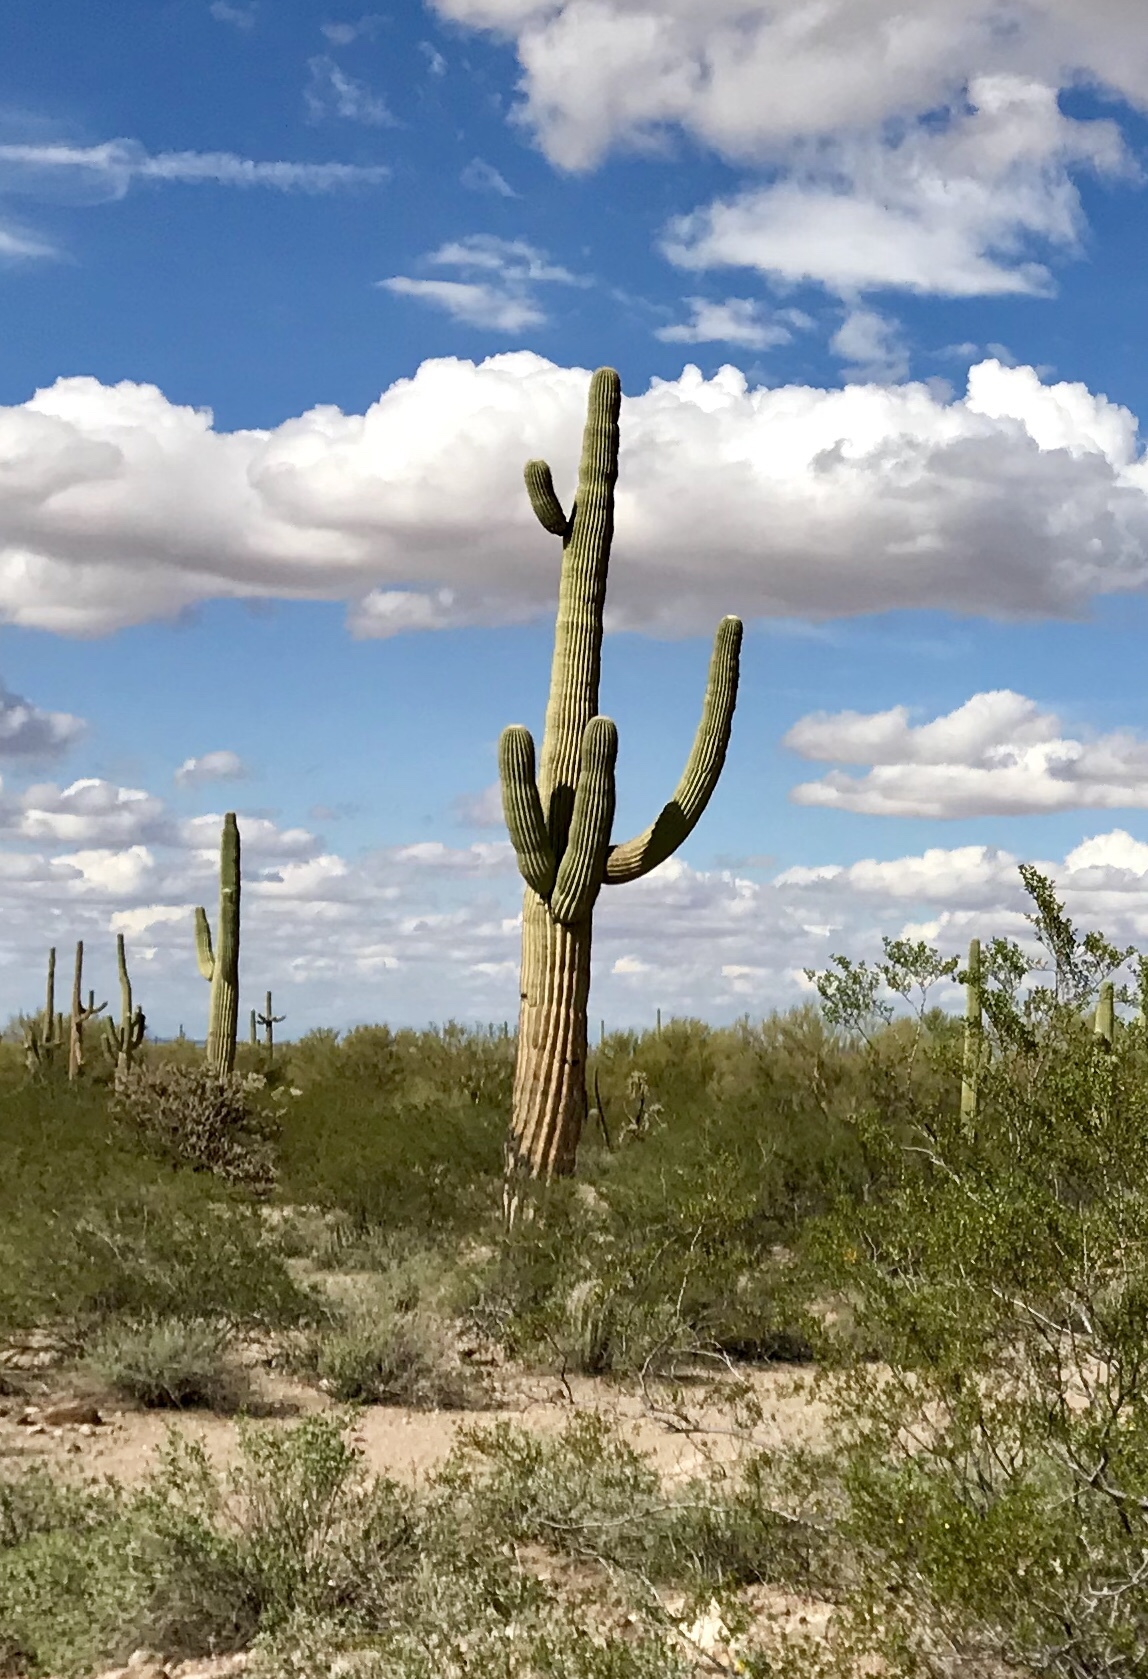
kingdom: Plantae
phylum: Tracheophyta
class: Magnoliopsida
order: Caryophyllales
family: Cactaceae
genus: Carnegiea
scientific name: Carnegiea gigantea
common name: Saguaro
